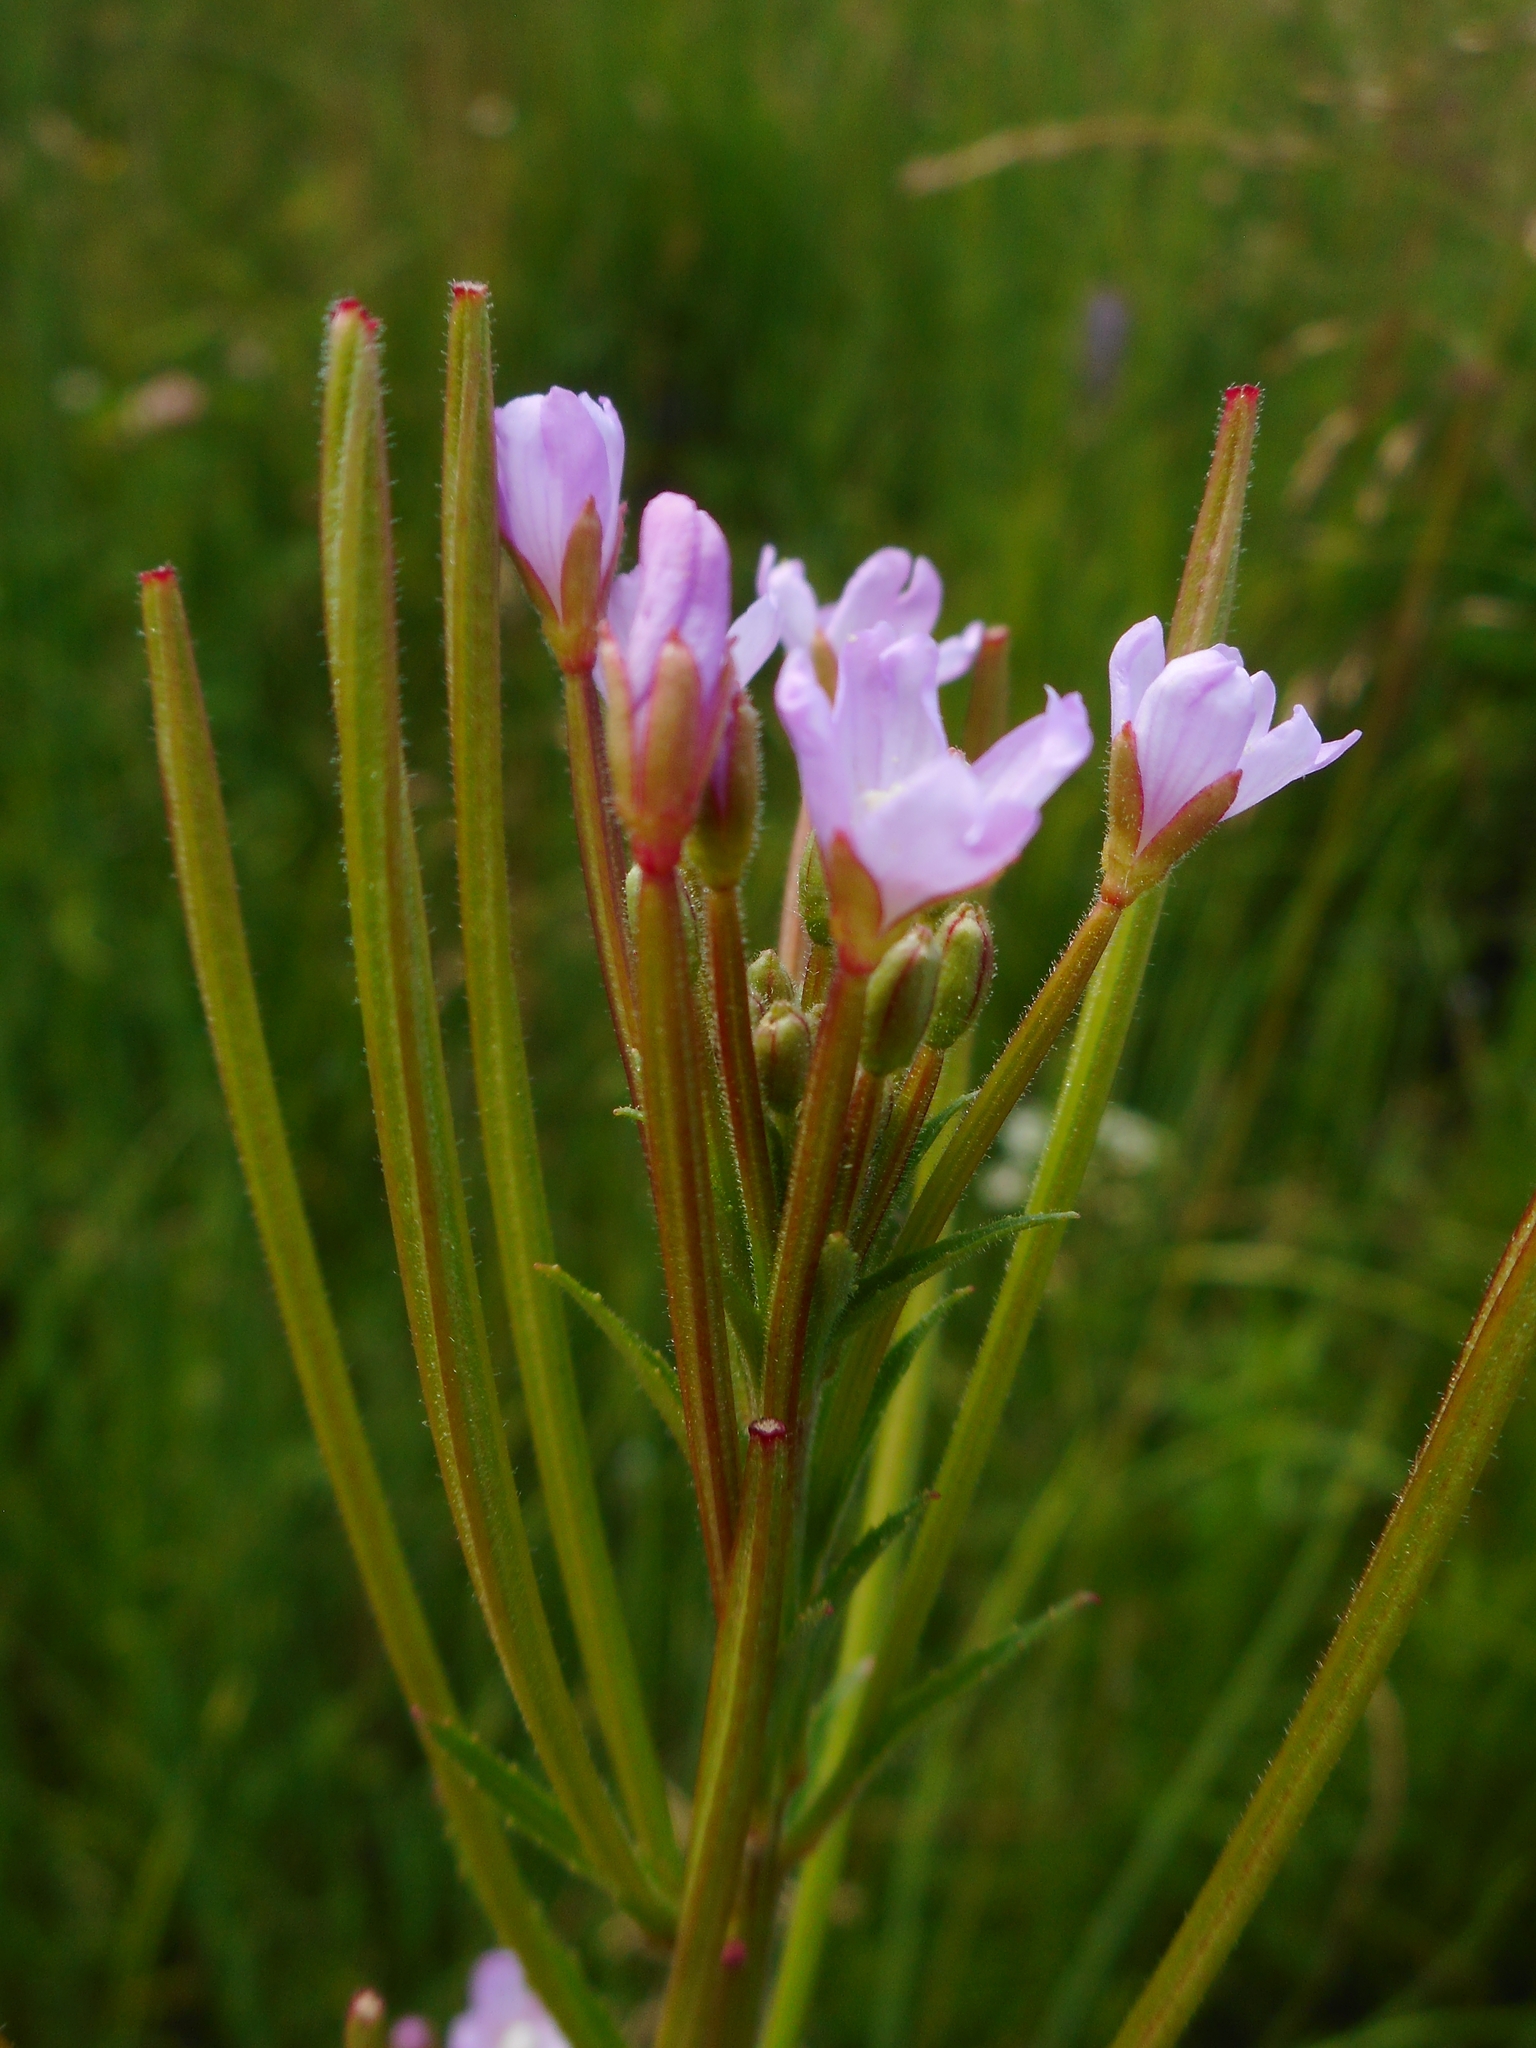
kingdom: Plantae
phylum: Tracheophyta
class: Magnoliopsida
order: Myrtales
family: Onagraceae
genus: Epilobium
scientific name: Epilobium parviflorum
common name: Hoary willowherb
